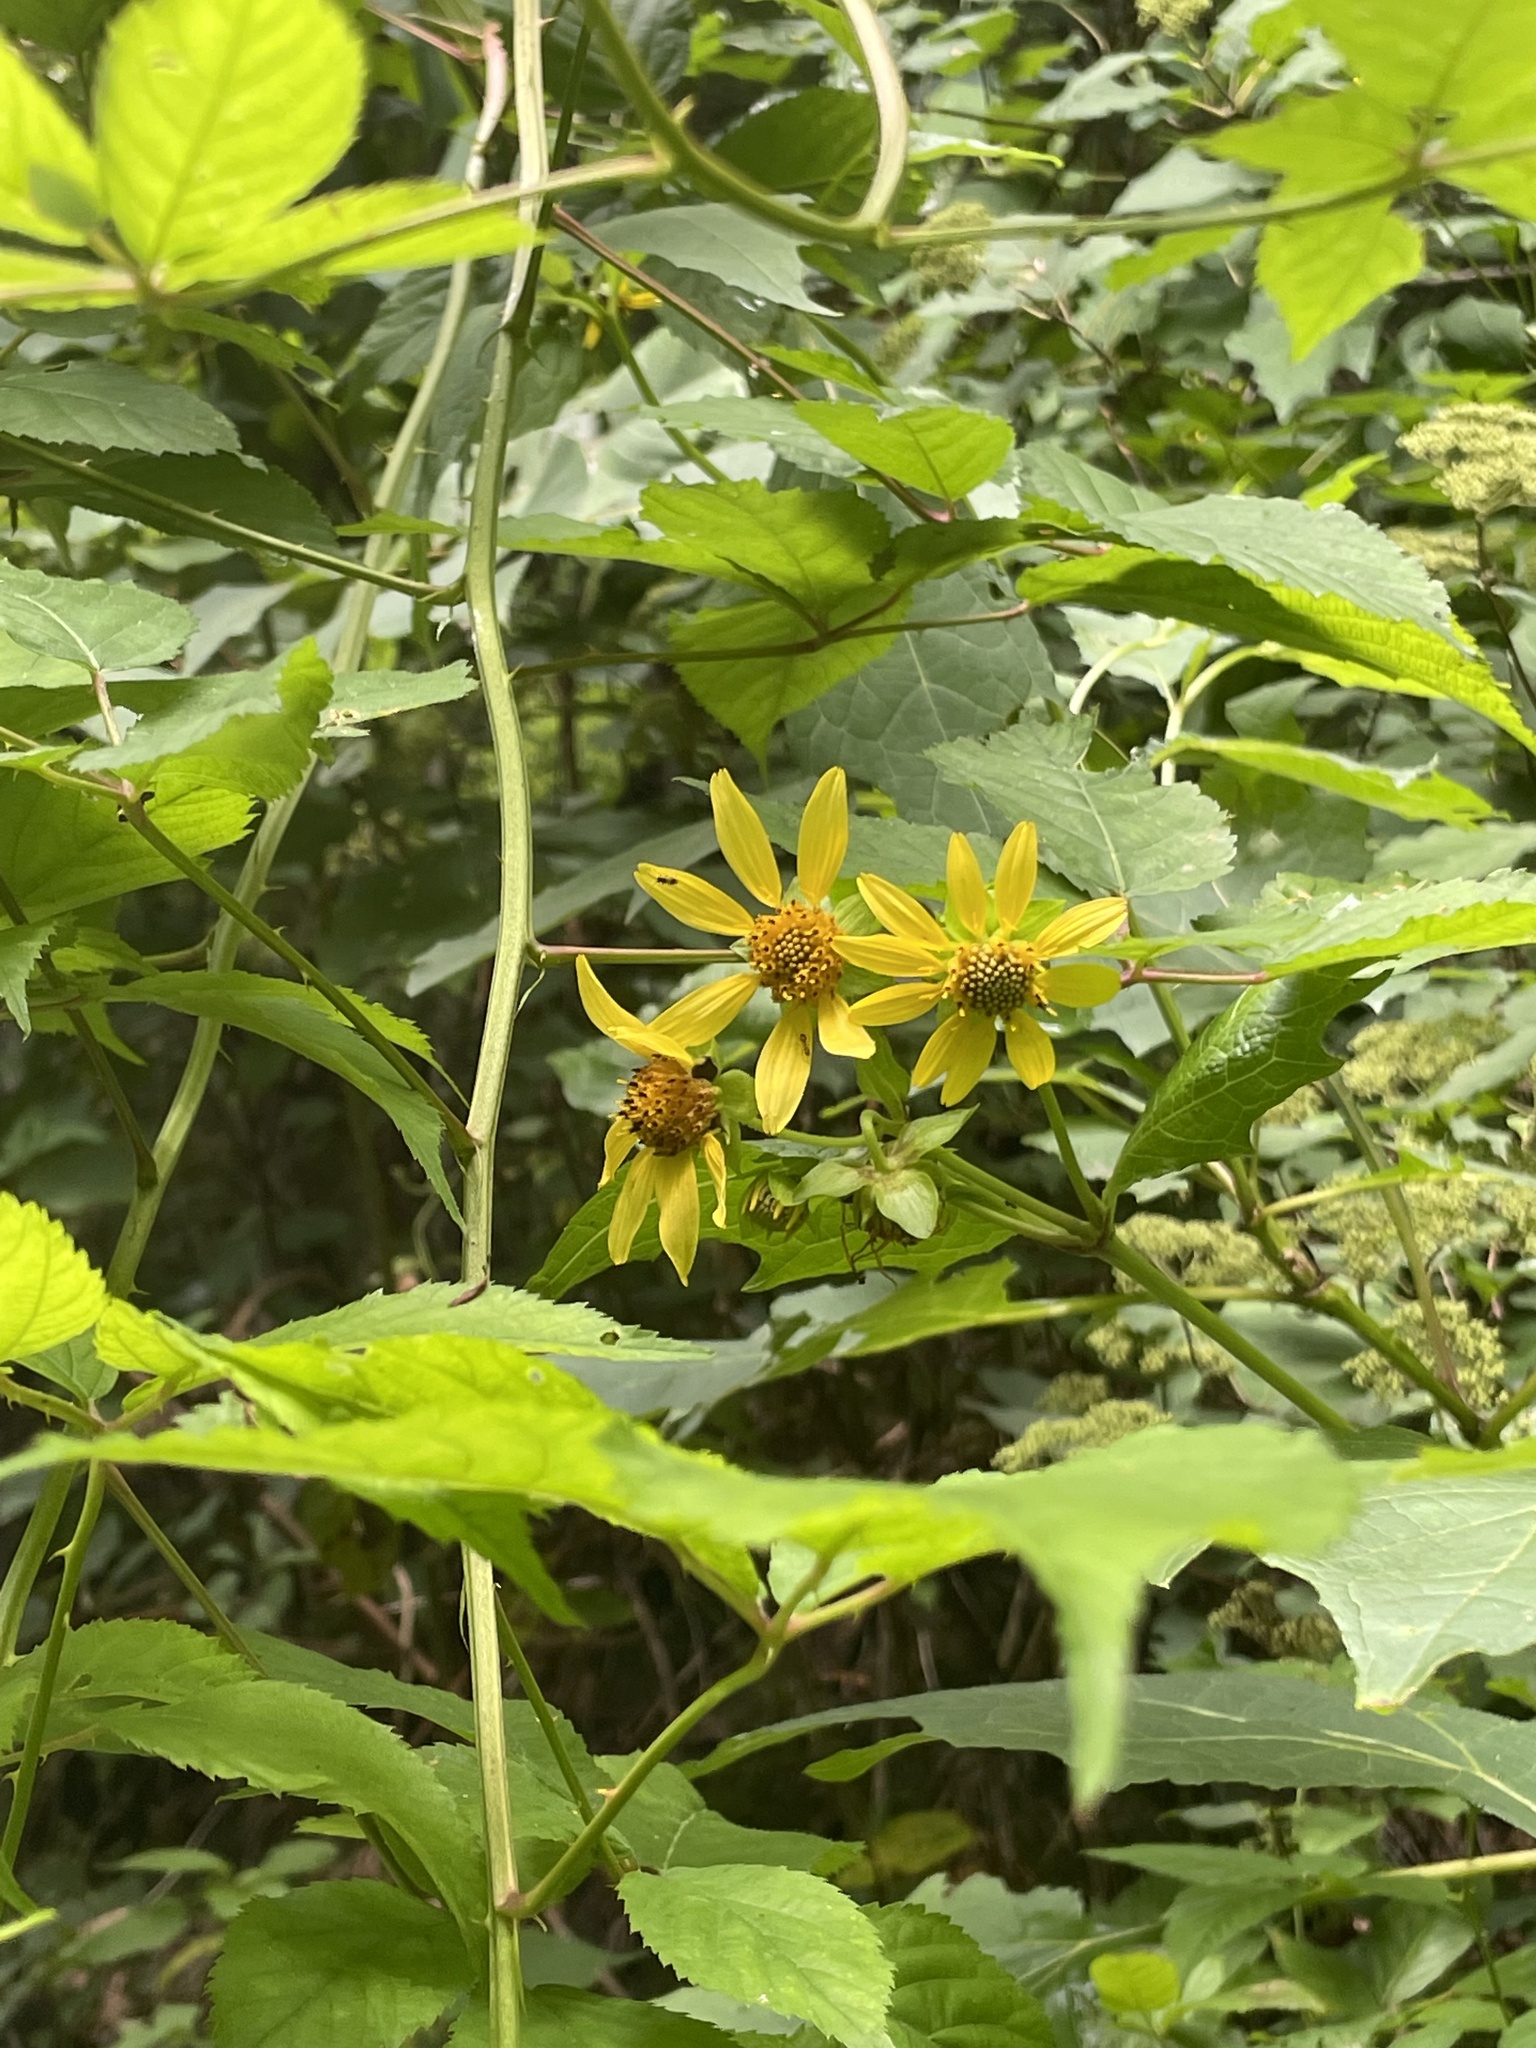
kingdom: Plantae
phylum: Tracheophyta
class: Magnoliopsida
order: Asterales
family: Asteraceae
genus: Smallanthus
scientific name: Smallanthus uvedalia
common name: Bear's-foot
